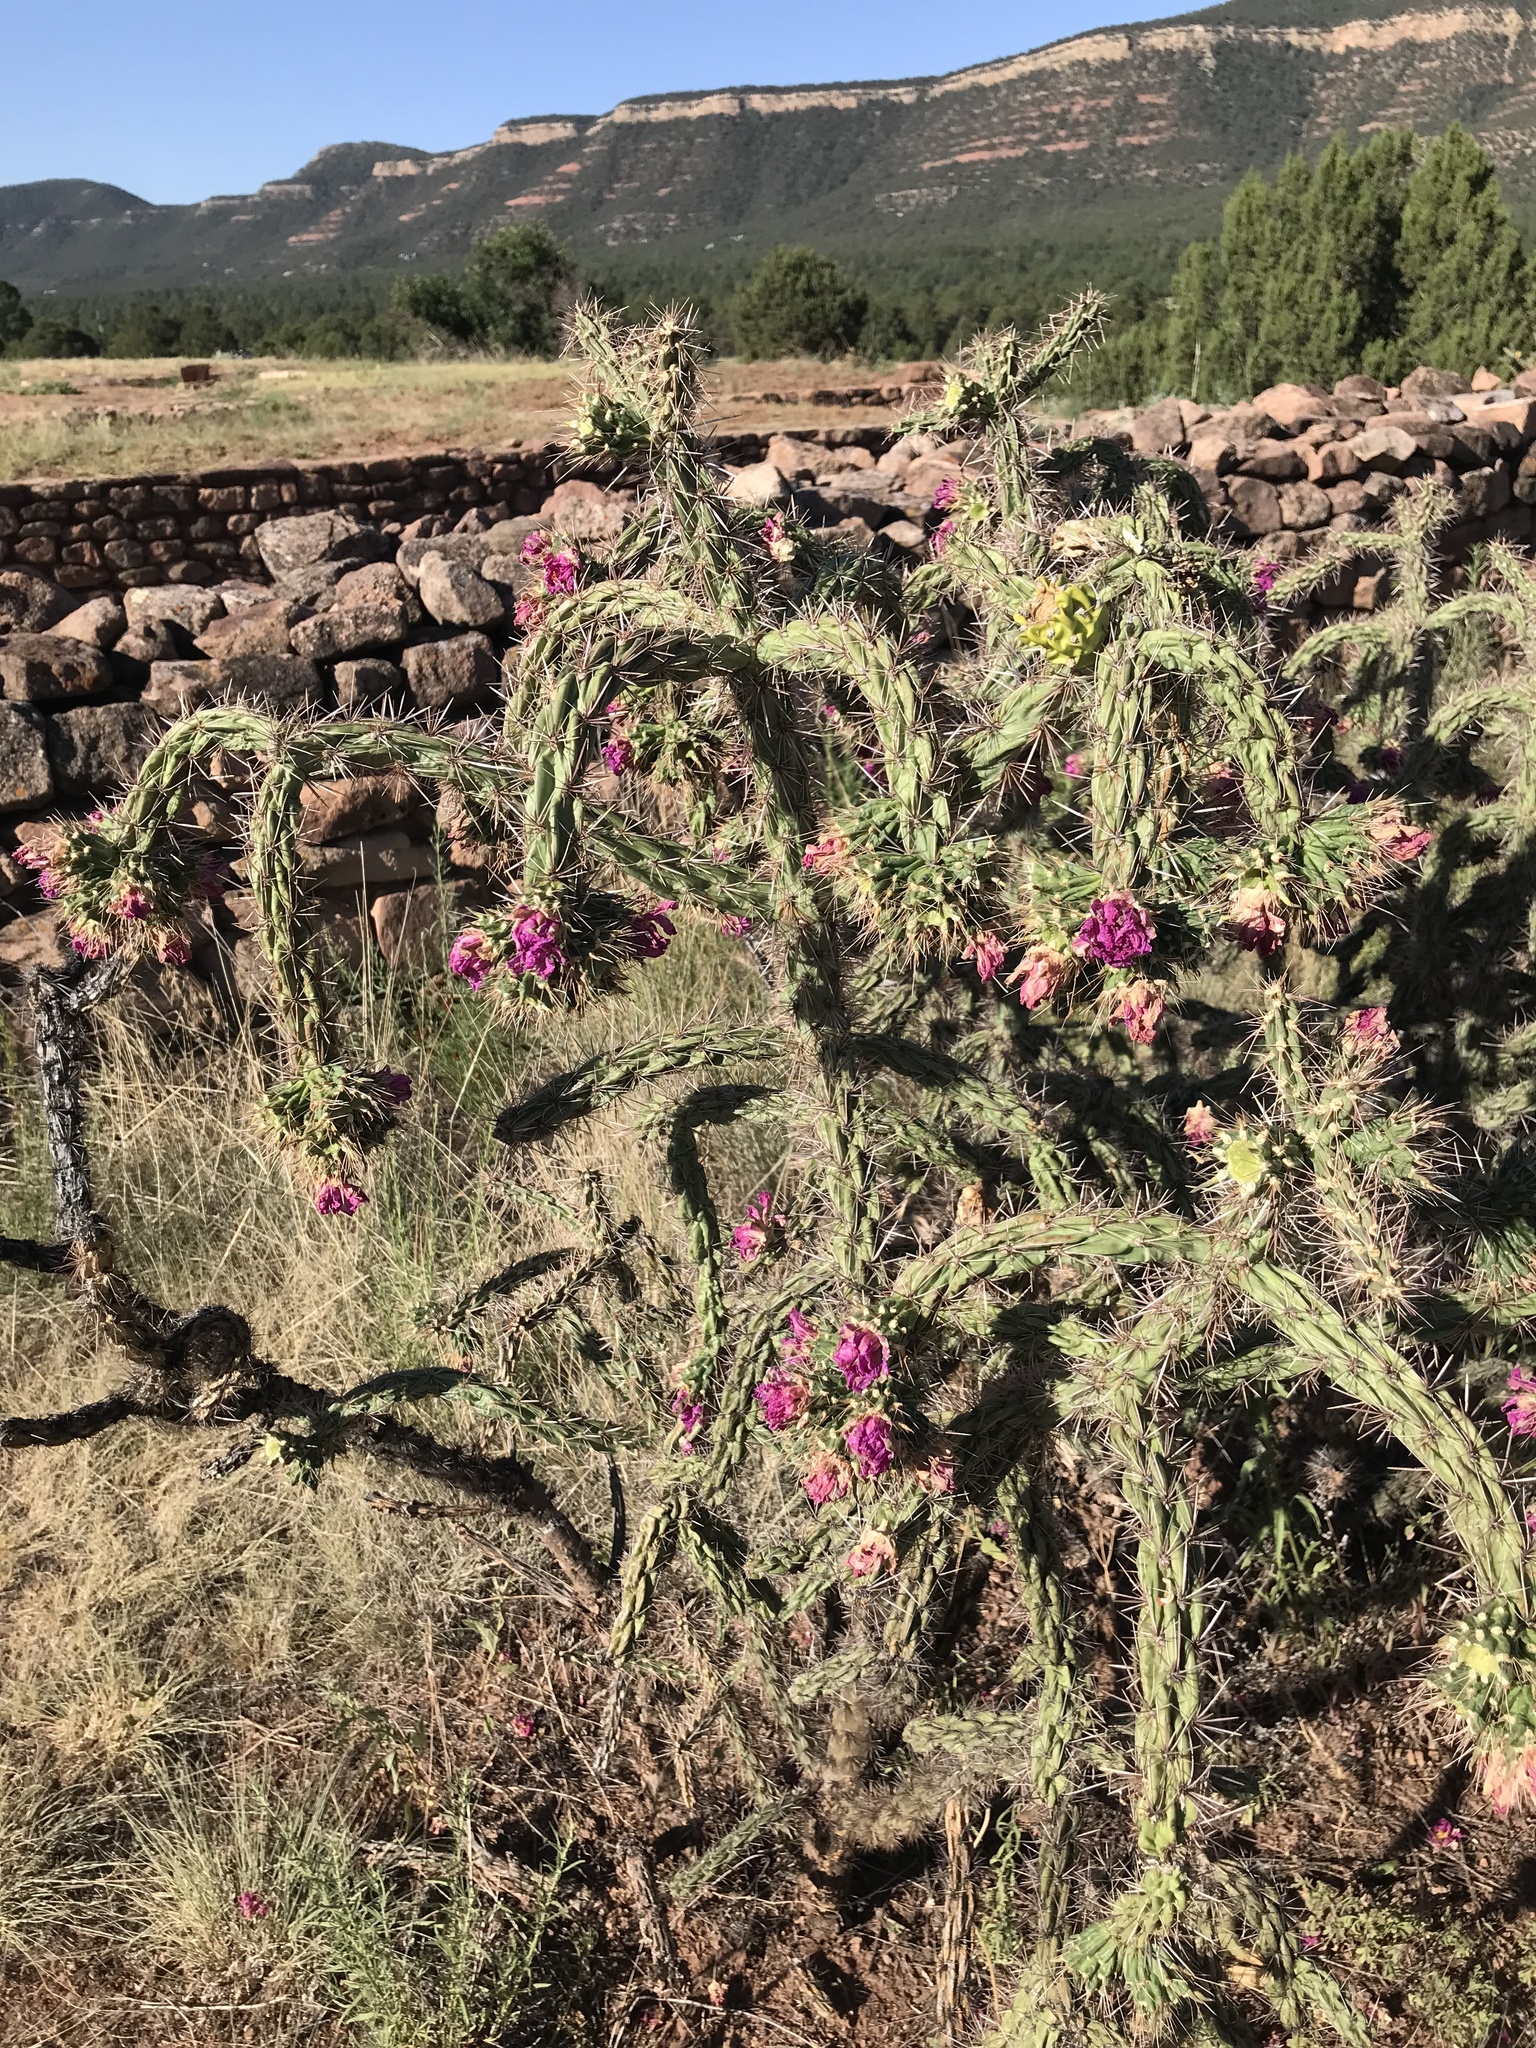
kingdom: Plantae
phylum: Tracheophyta
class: Magnoliopsida
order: Caryophyllales
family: Cactaceae
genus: Cylindropuntia
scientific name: Cylindropuntia imbricata
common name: Candelabrum cactus
